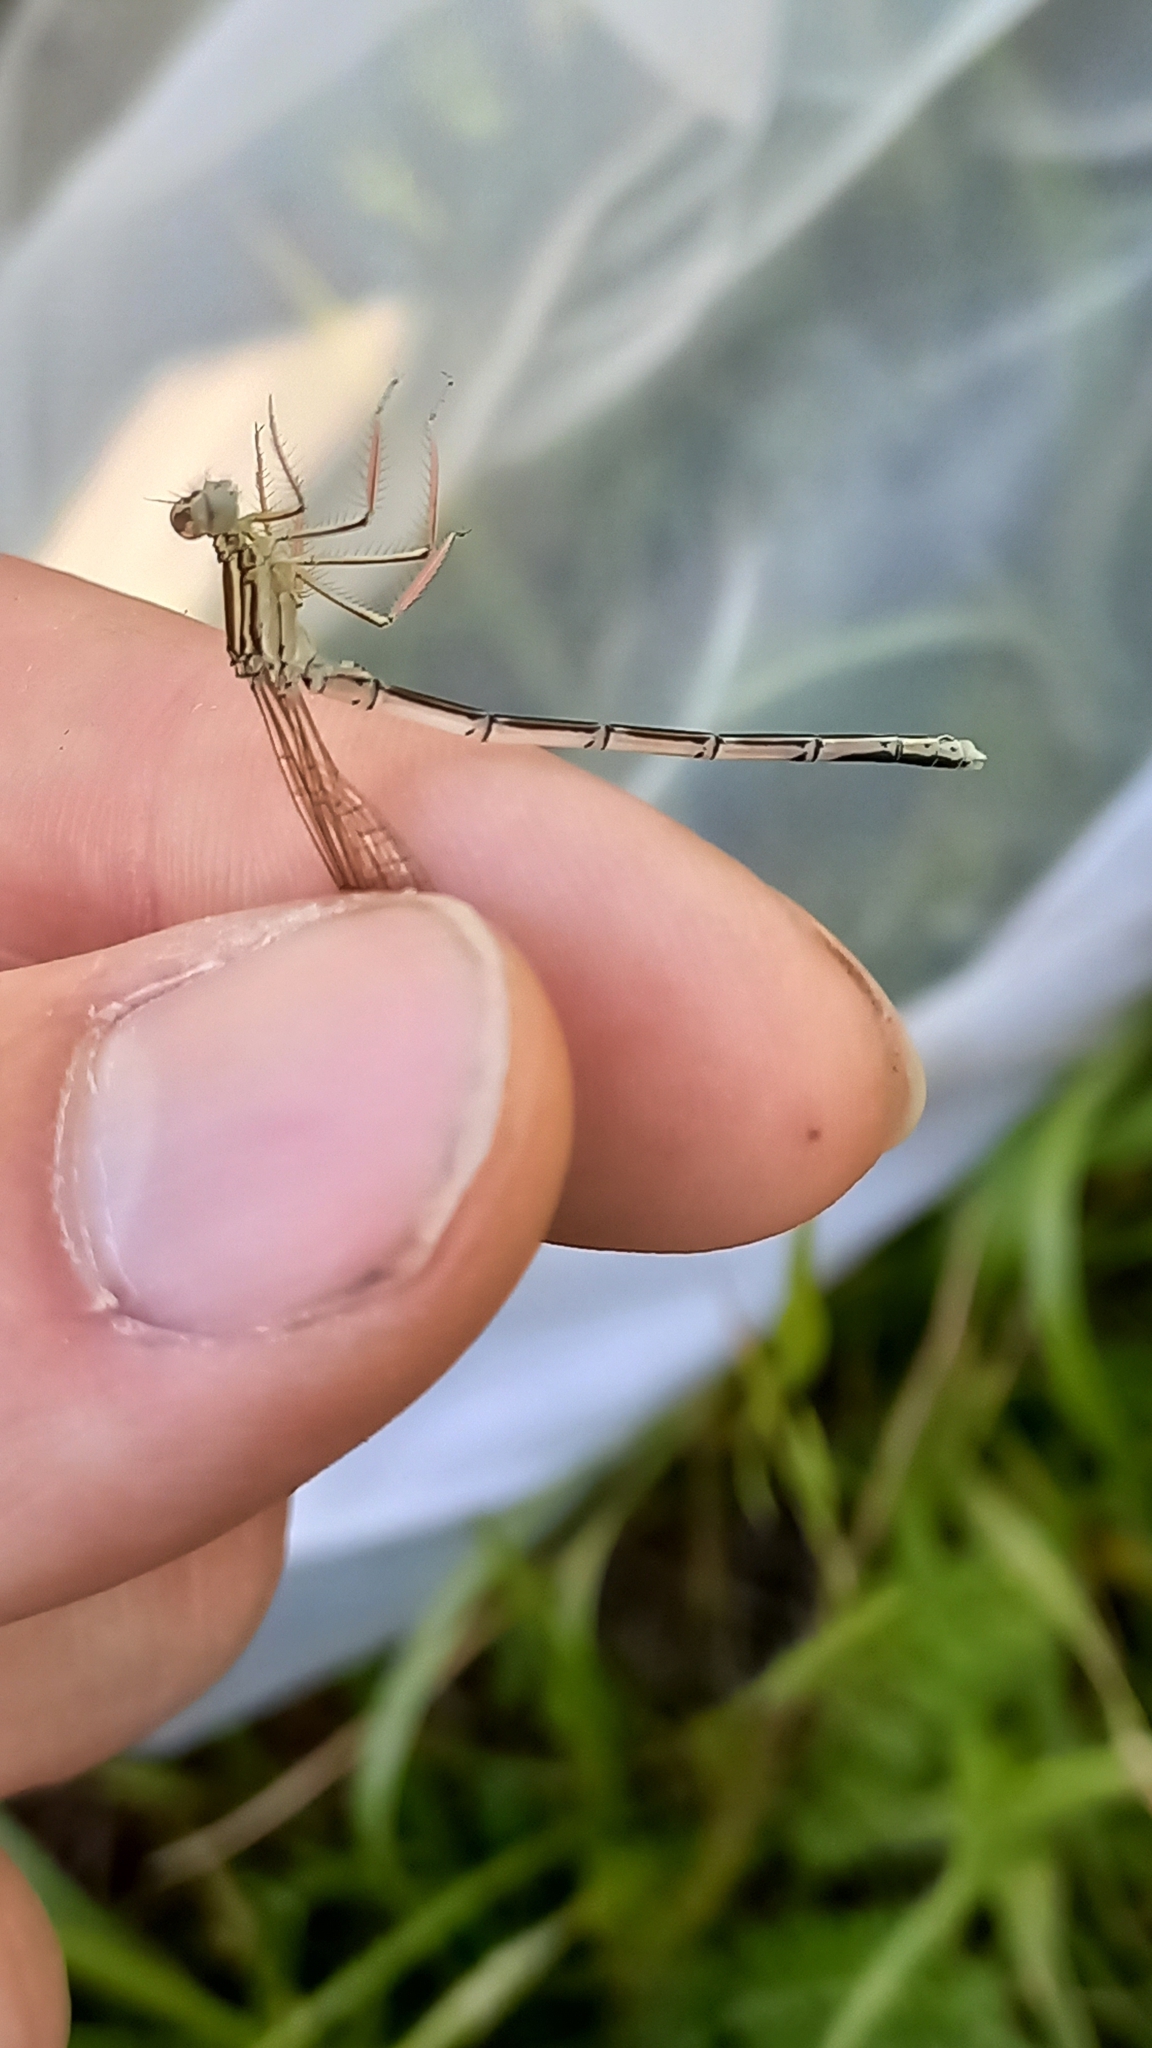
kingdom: Animalia
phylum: Arthropoda
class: Insecta
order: Odonata
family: Platycnemididae
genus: Platycnemis
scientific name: Platycnemis pennipes
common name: White-legged damselfly
